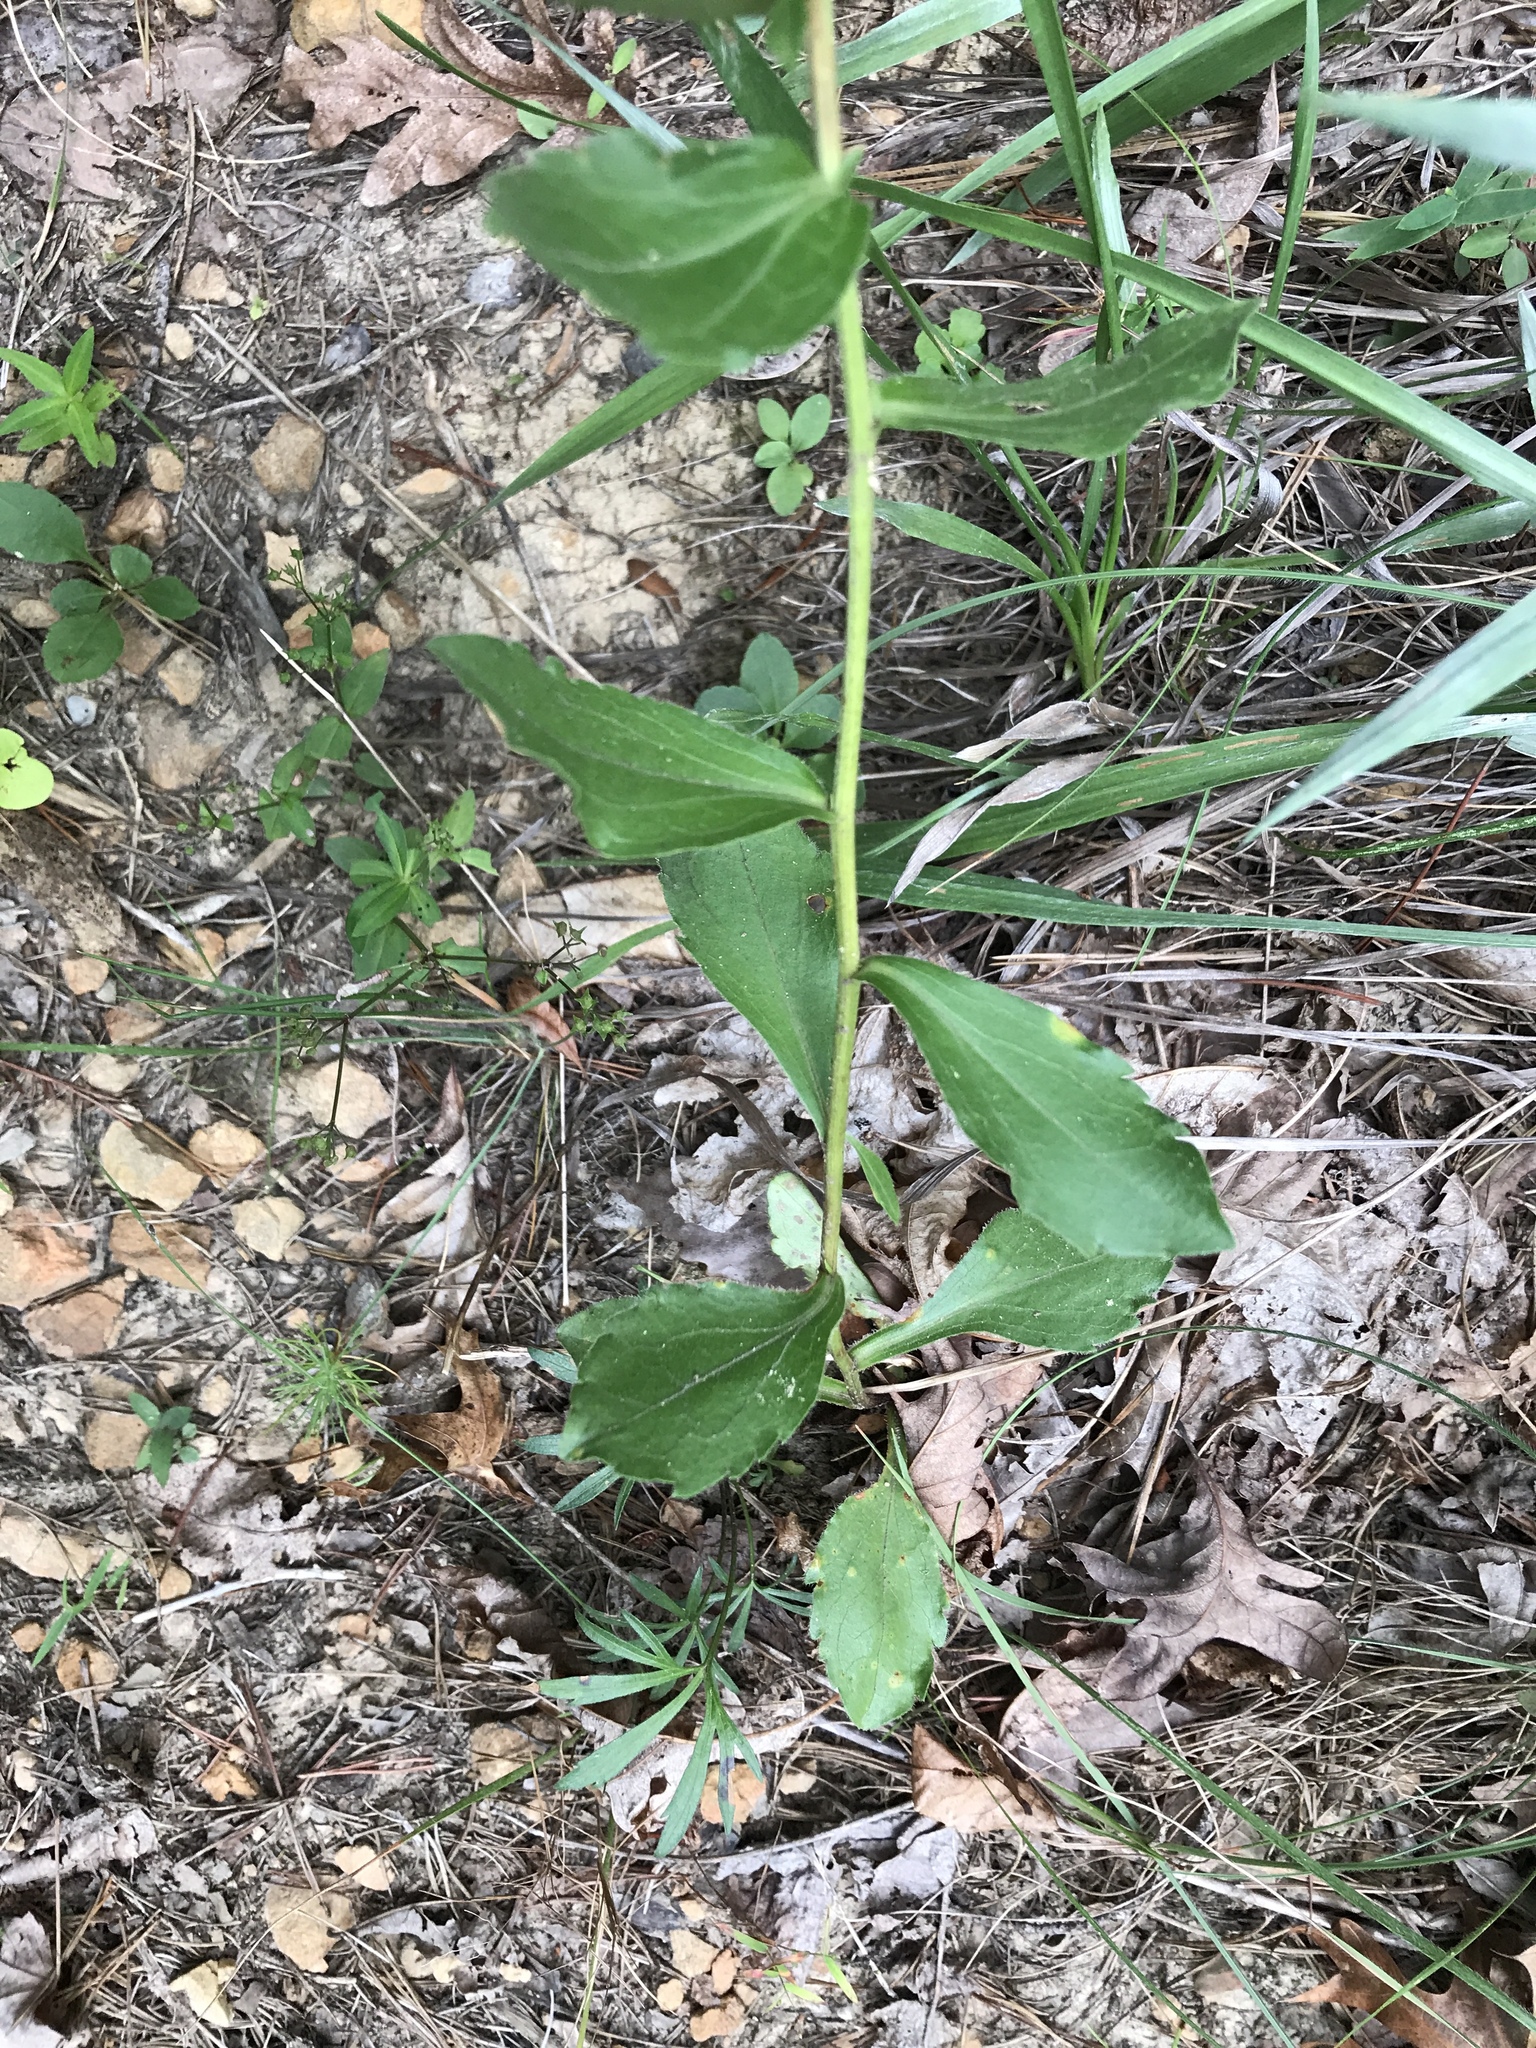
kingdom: Plantae
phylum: Tracheophyta
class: Magnoliopsida
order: Asterales
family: Asteraceae
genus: Sericocarpus
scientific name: Sericocarpus asteroides
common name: Toothed white-top aster
